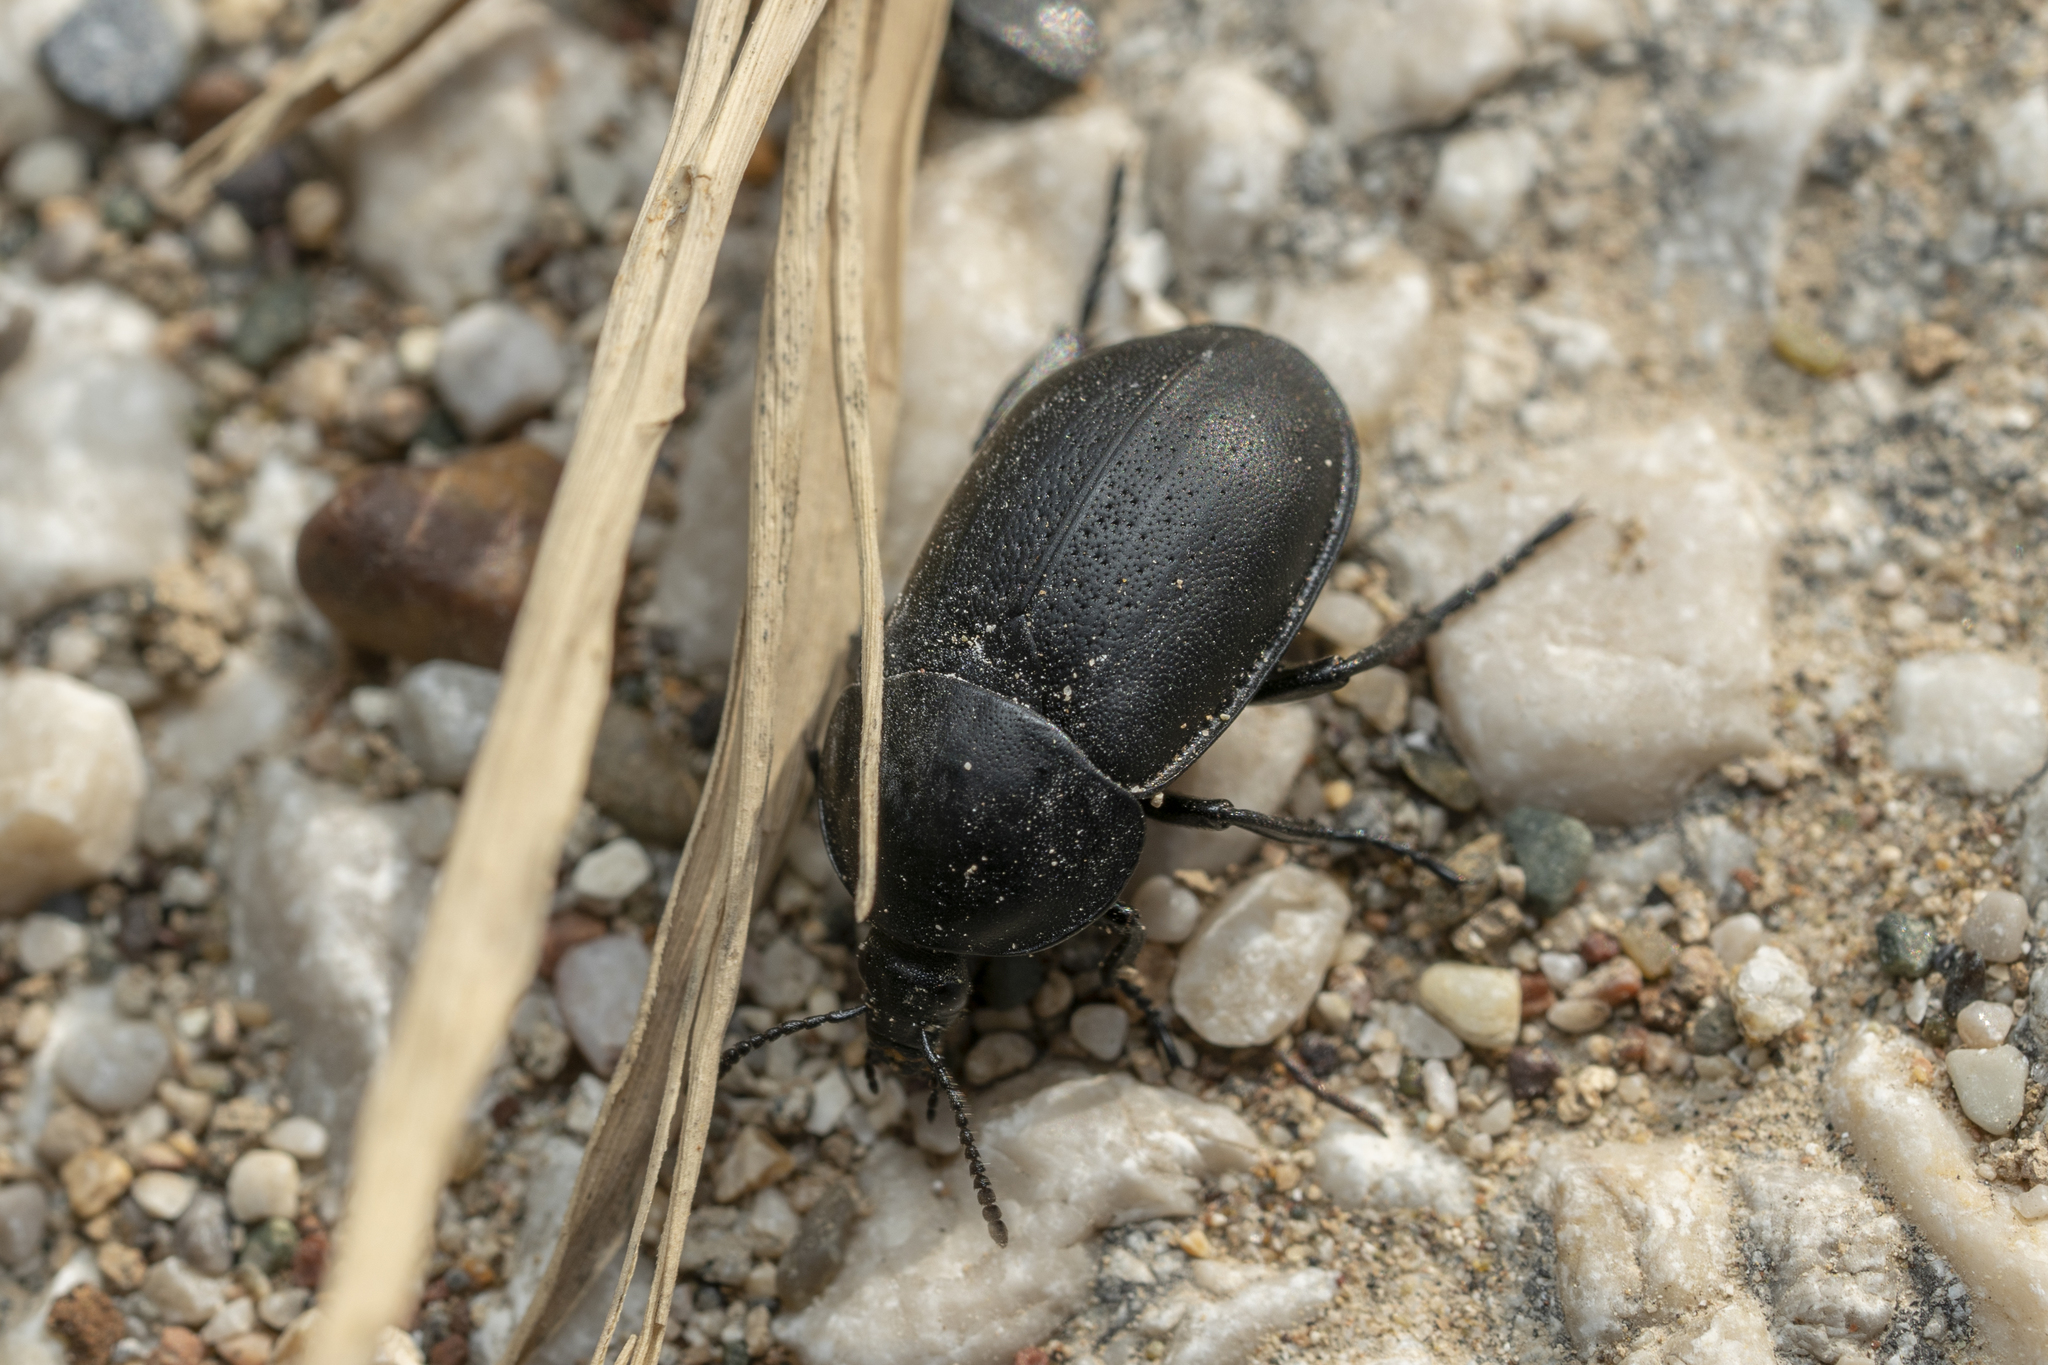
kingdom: Animalia
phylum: Arthropoda
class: Insecta
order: Coleoptera
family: Silphidae
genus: Ablattaria
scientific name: Ablattaria arenaria
